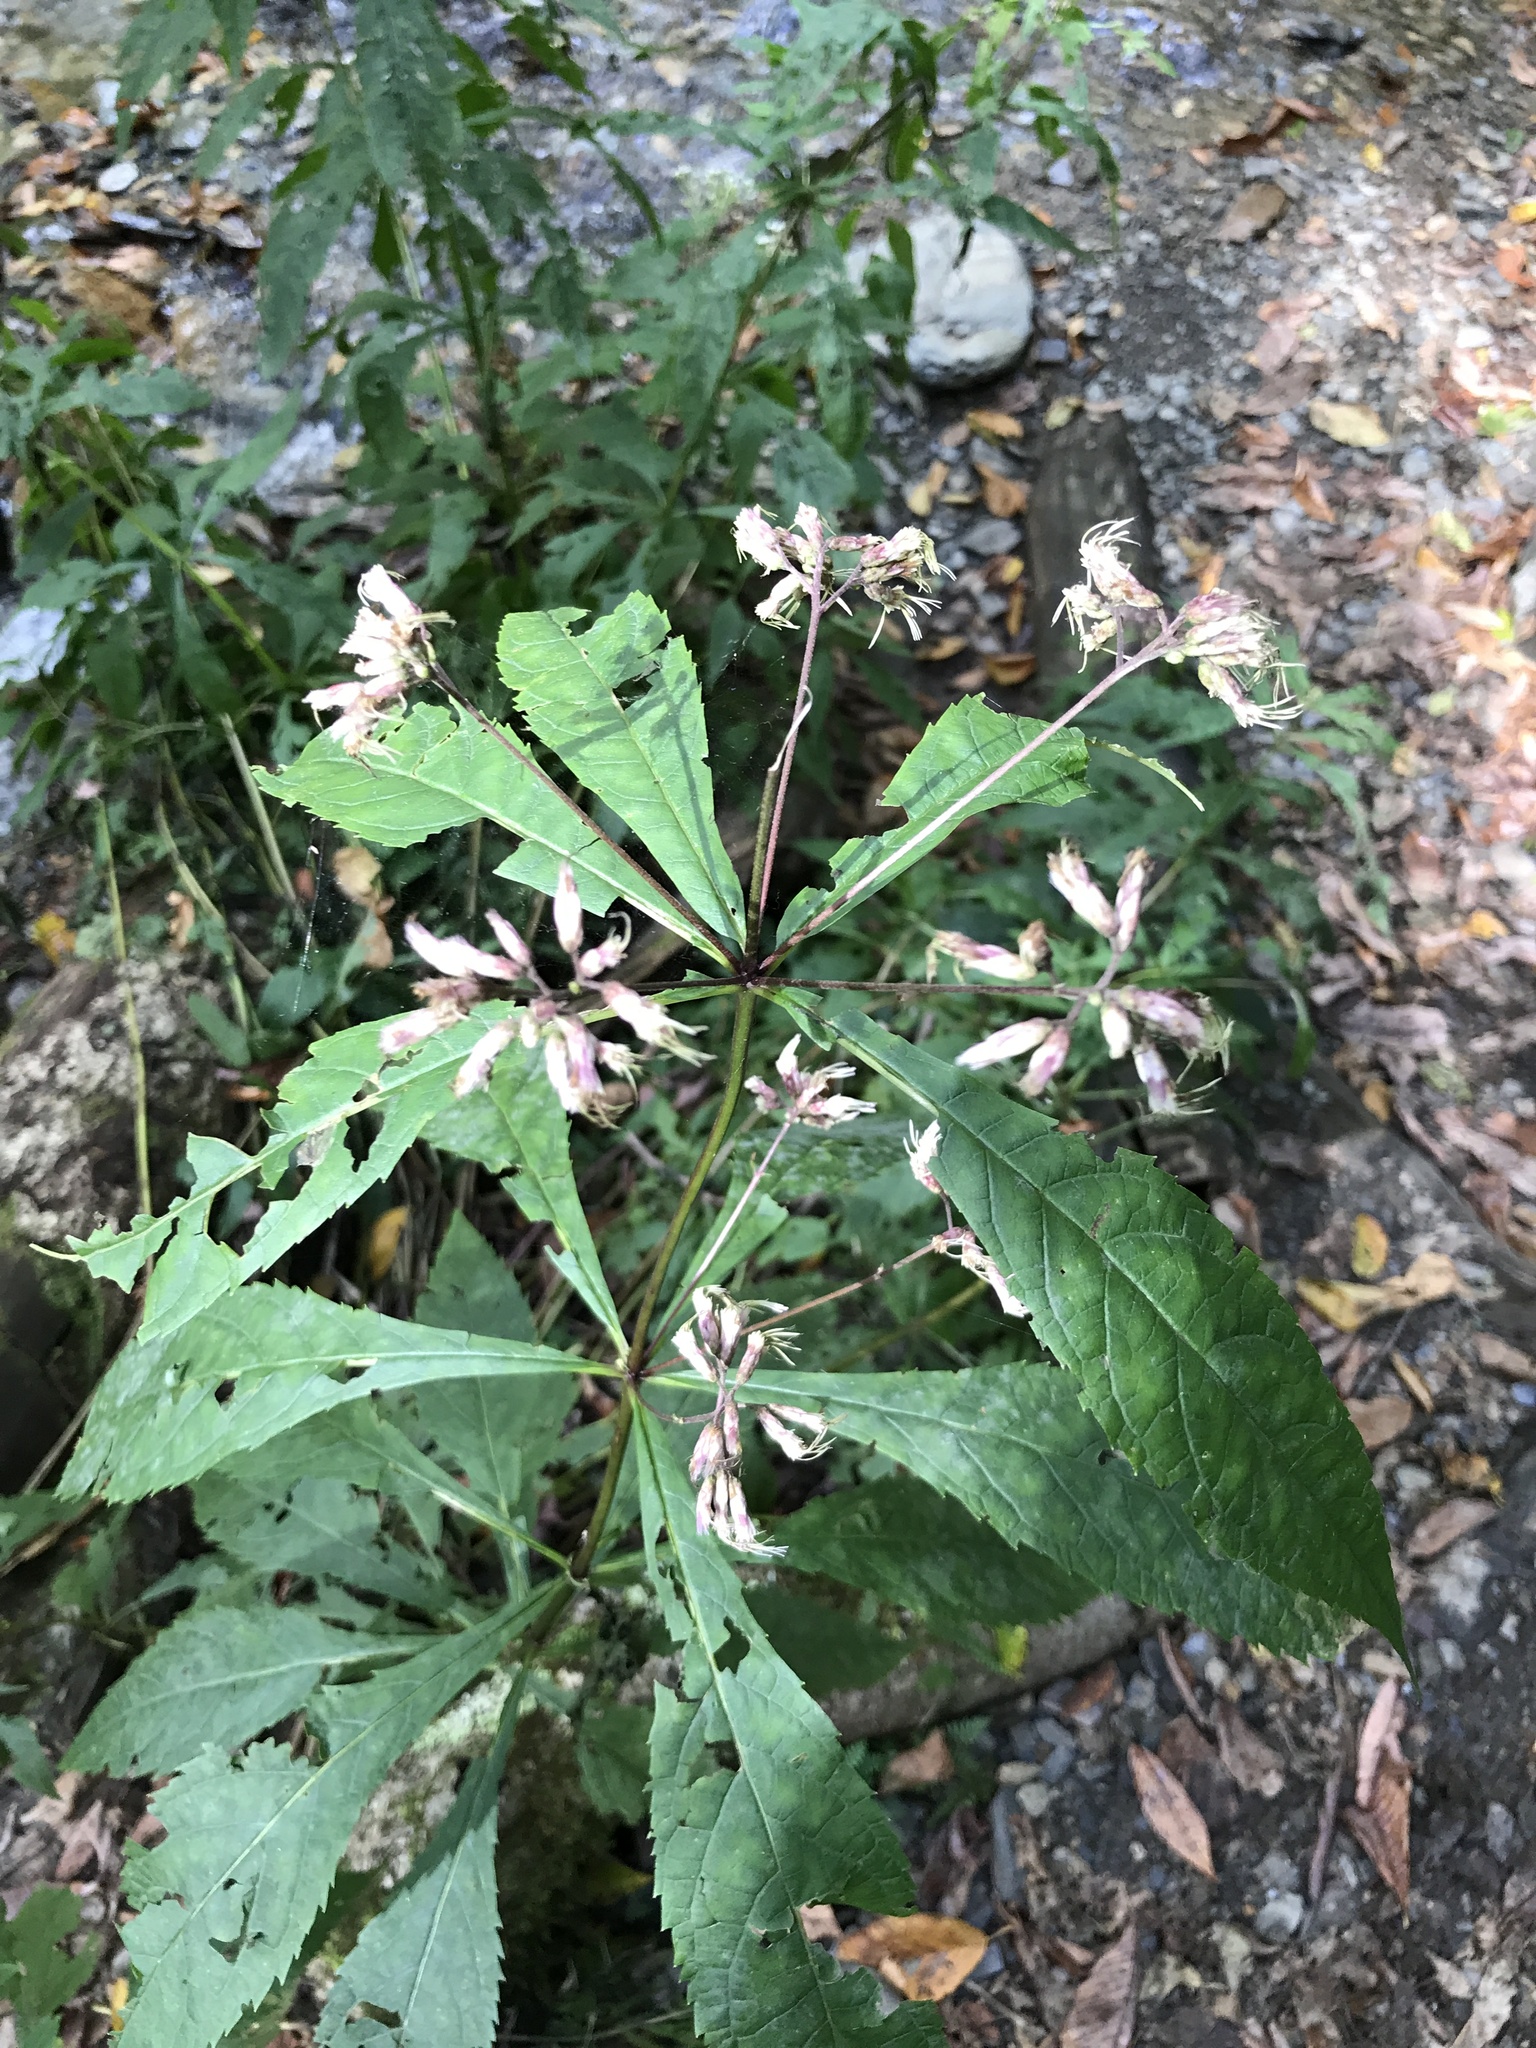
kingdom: Plantae
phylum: Tracheophyta
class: Magnoliopsida
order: Asterales
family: Asteraceae
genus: Eutrochium
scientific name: Eutrochium purpureum
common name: Gravelroot
